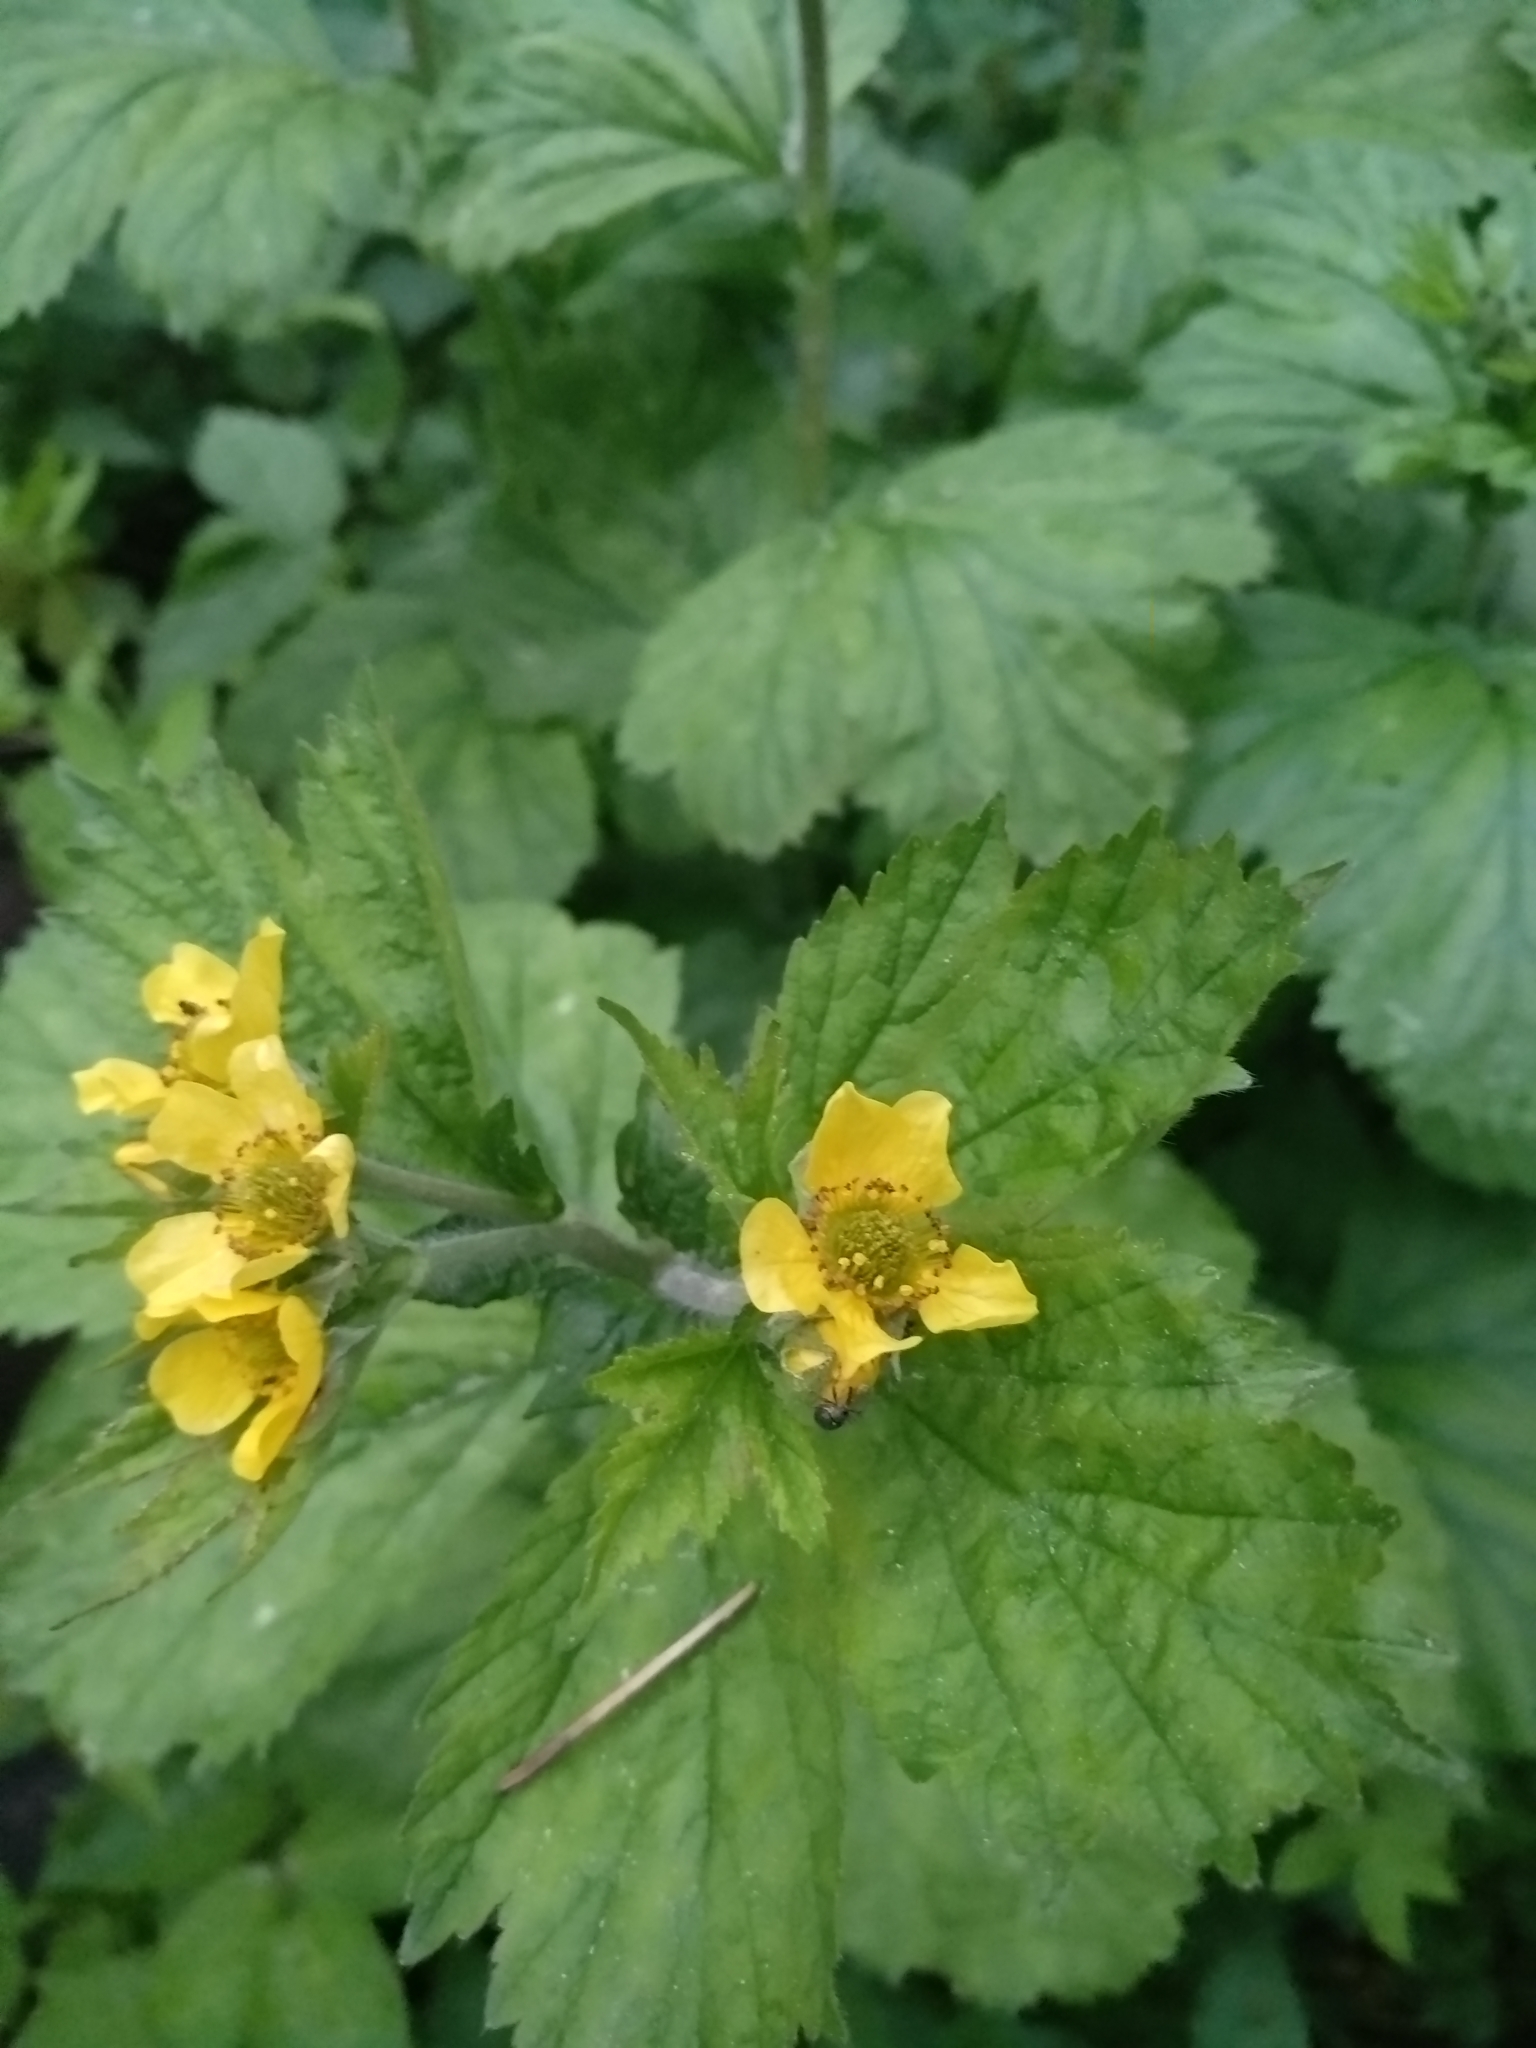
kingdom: Plantae
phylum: Tracheophyta
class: Magnoliopsida
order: Rosales
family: Rosaceae
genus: Geum
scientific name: Geum macrophyllum
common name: Large-leaved avens
